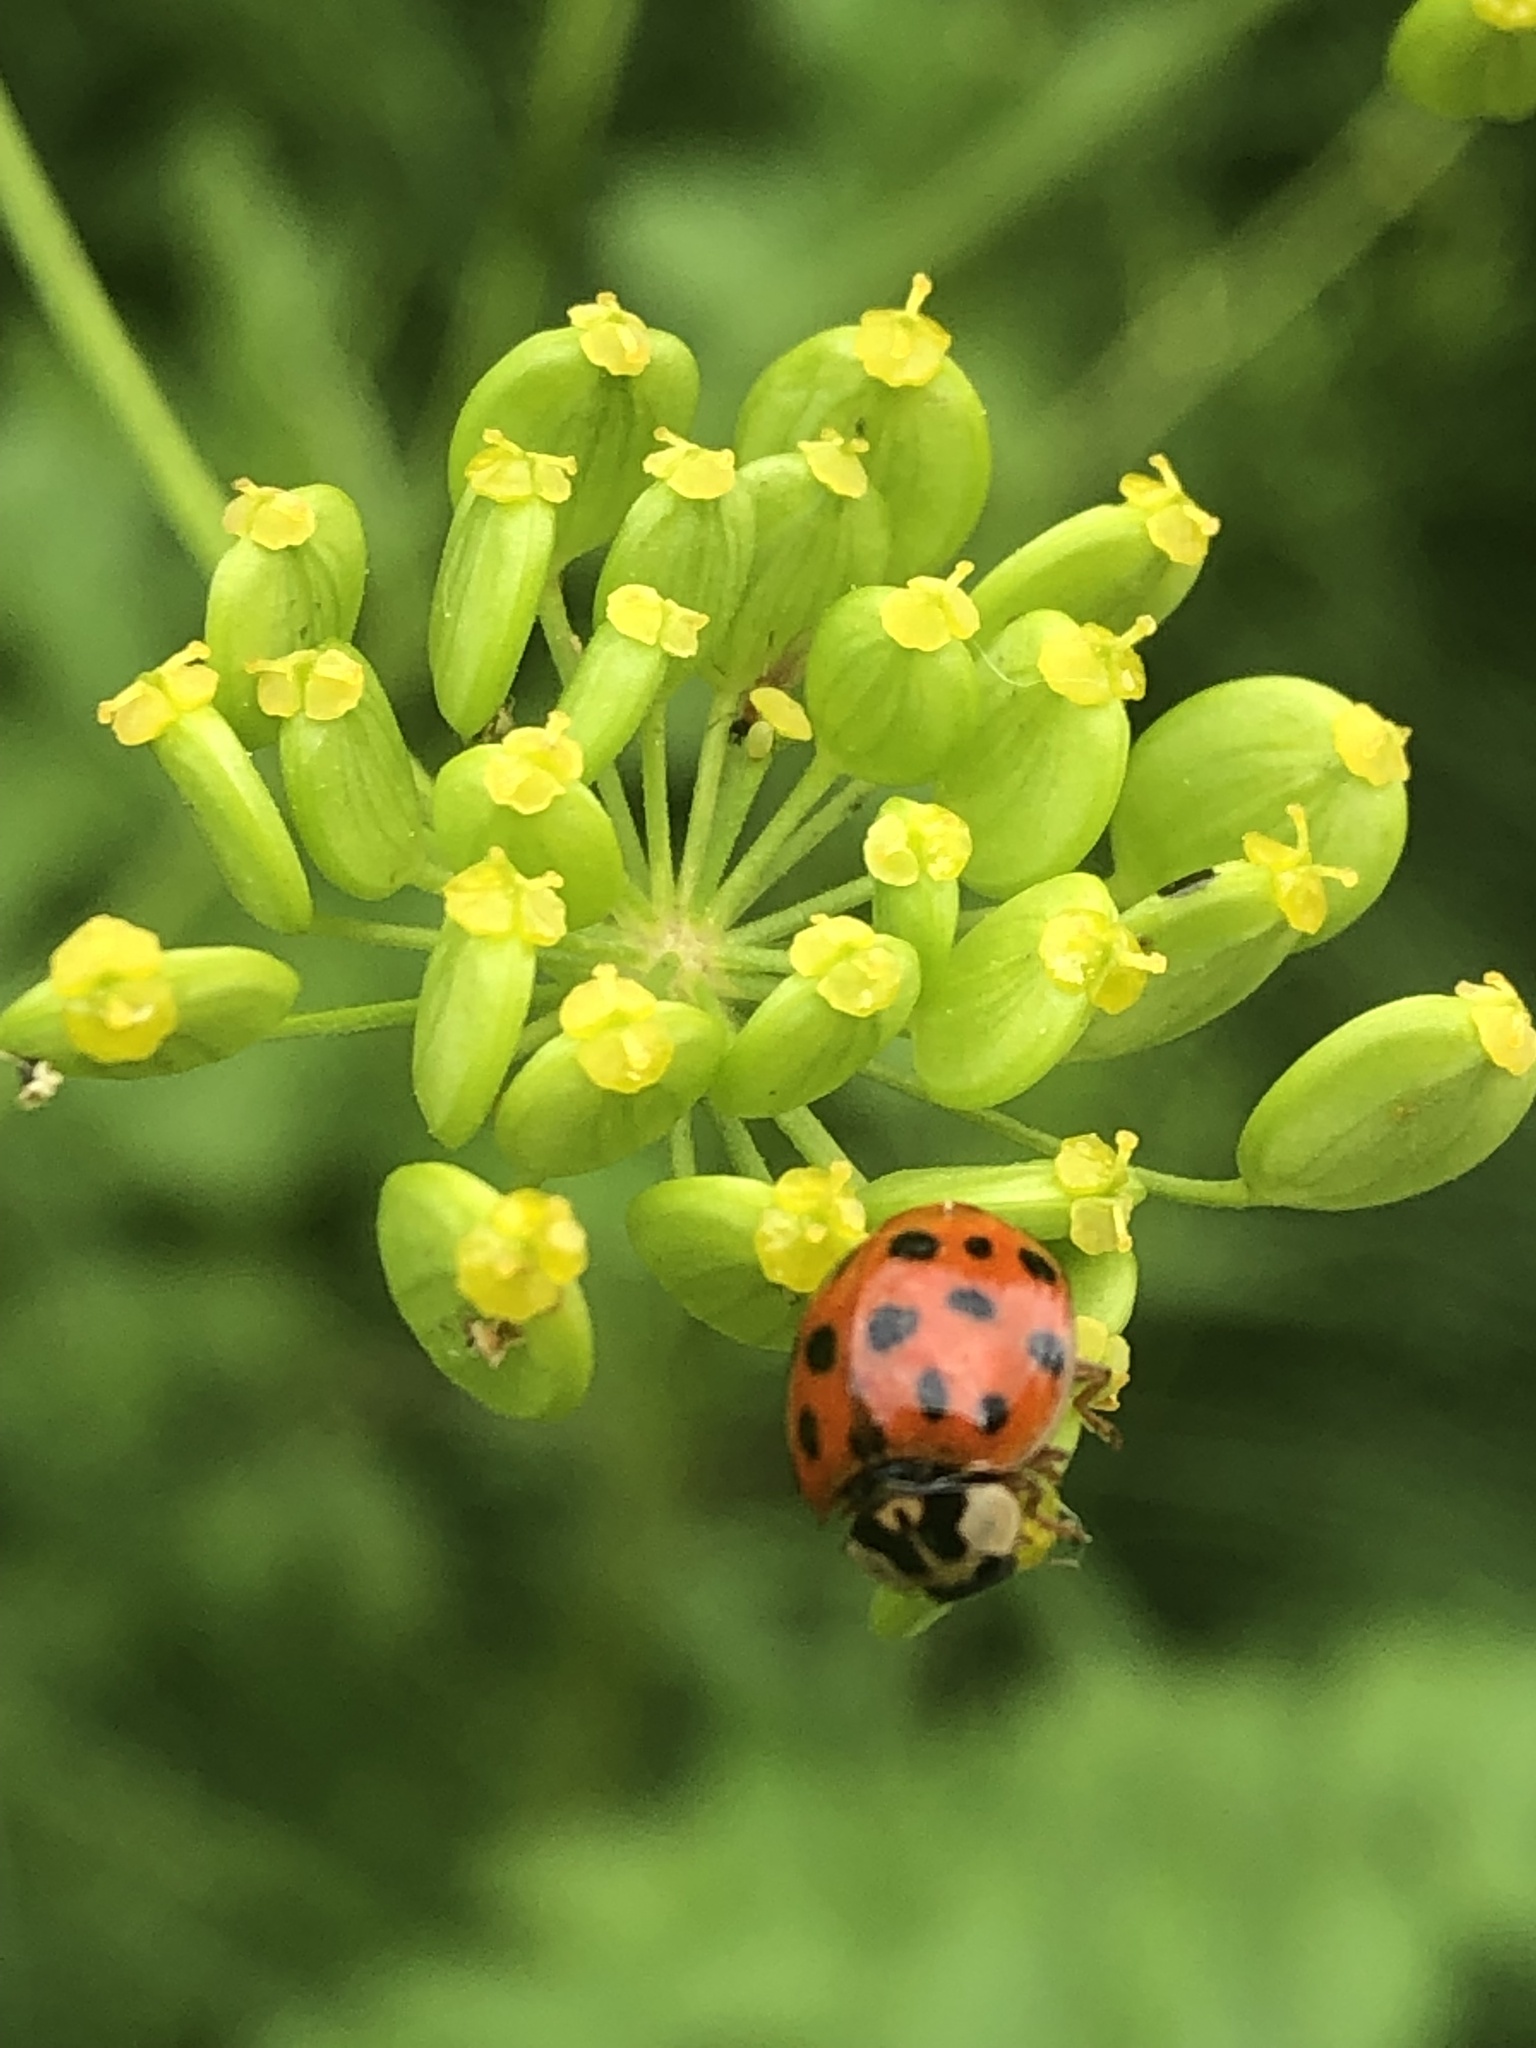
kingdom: Animalia
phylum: Arthropoda
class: Insecta
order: Coleoptera
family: Coccinellidae
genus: Harmonia
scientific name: Harmonia axyridis
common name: Harlequin ladybird
